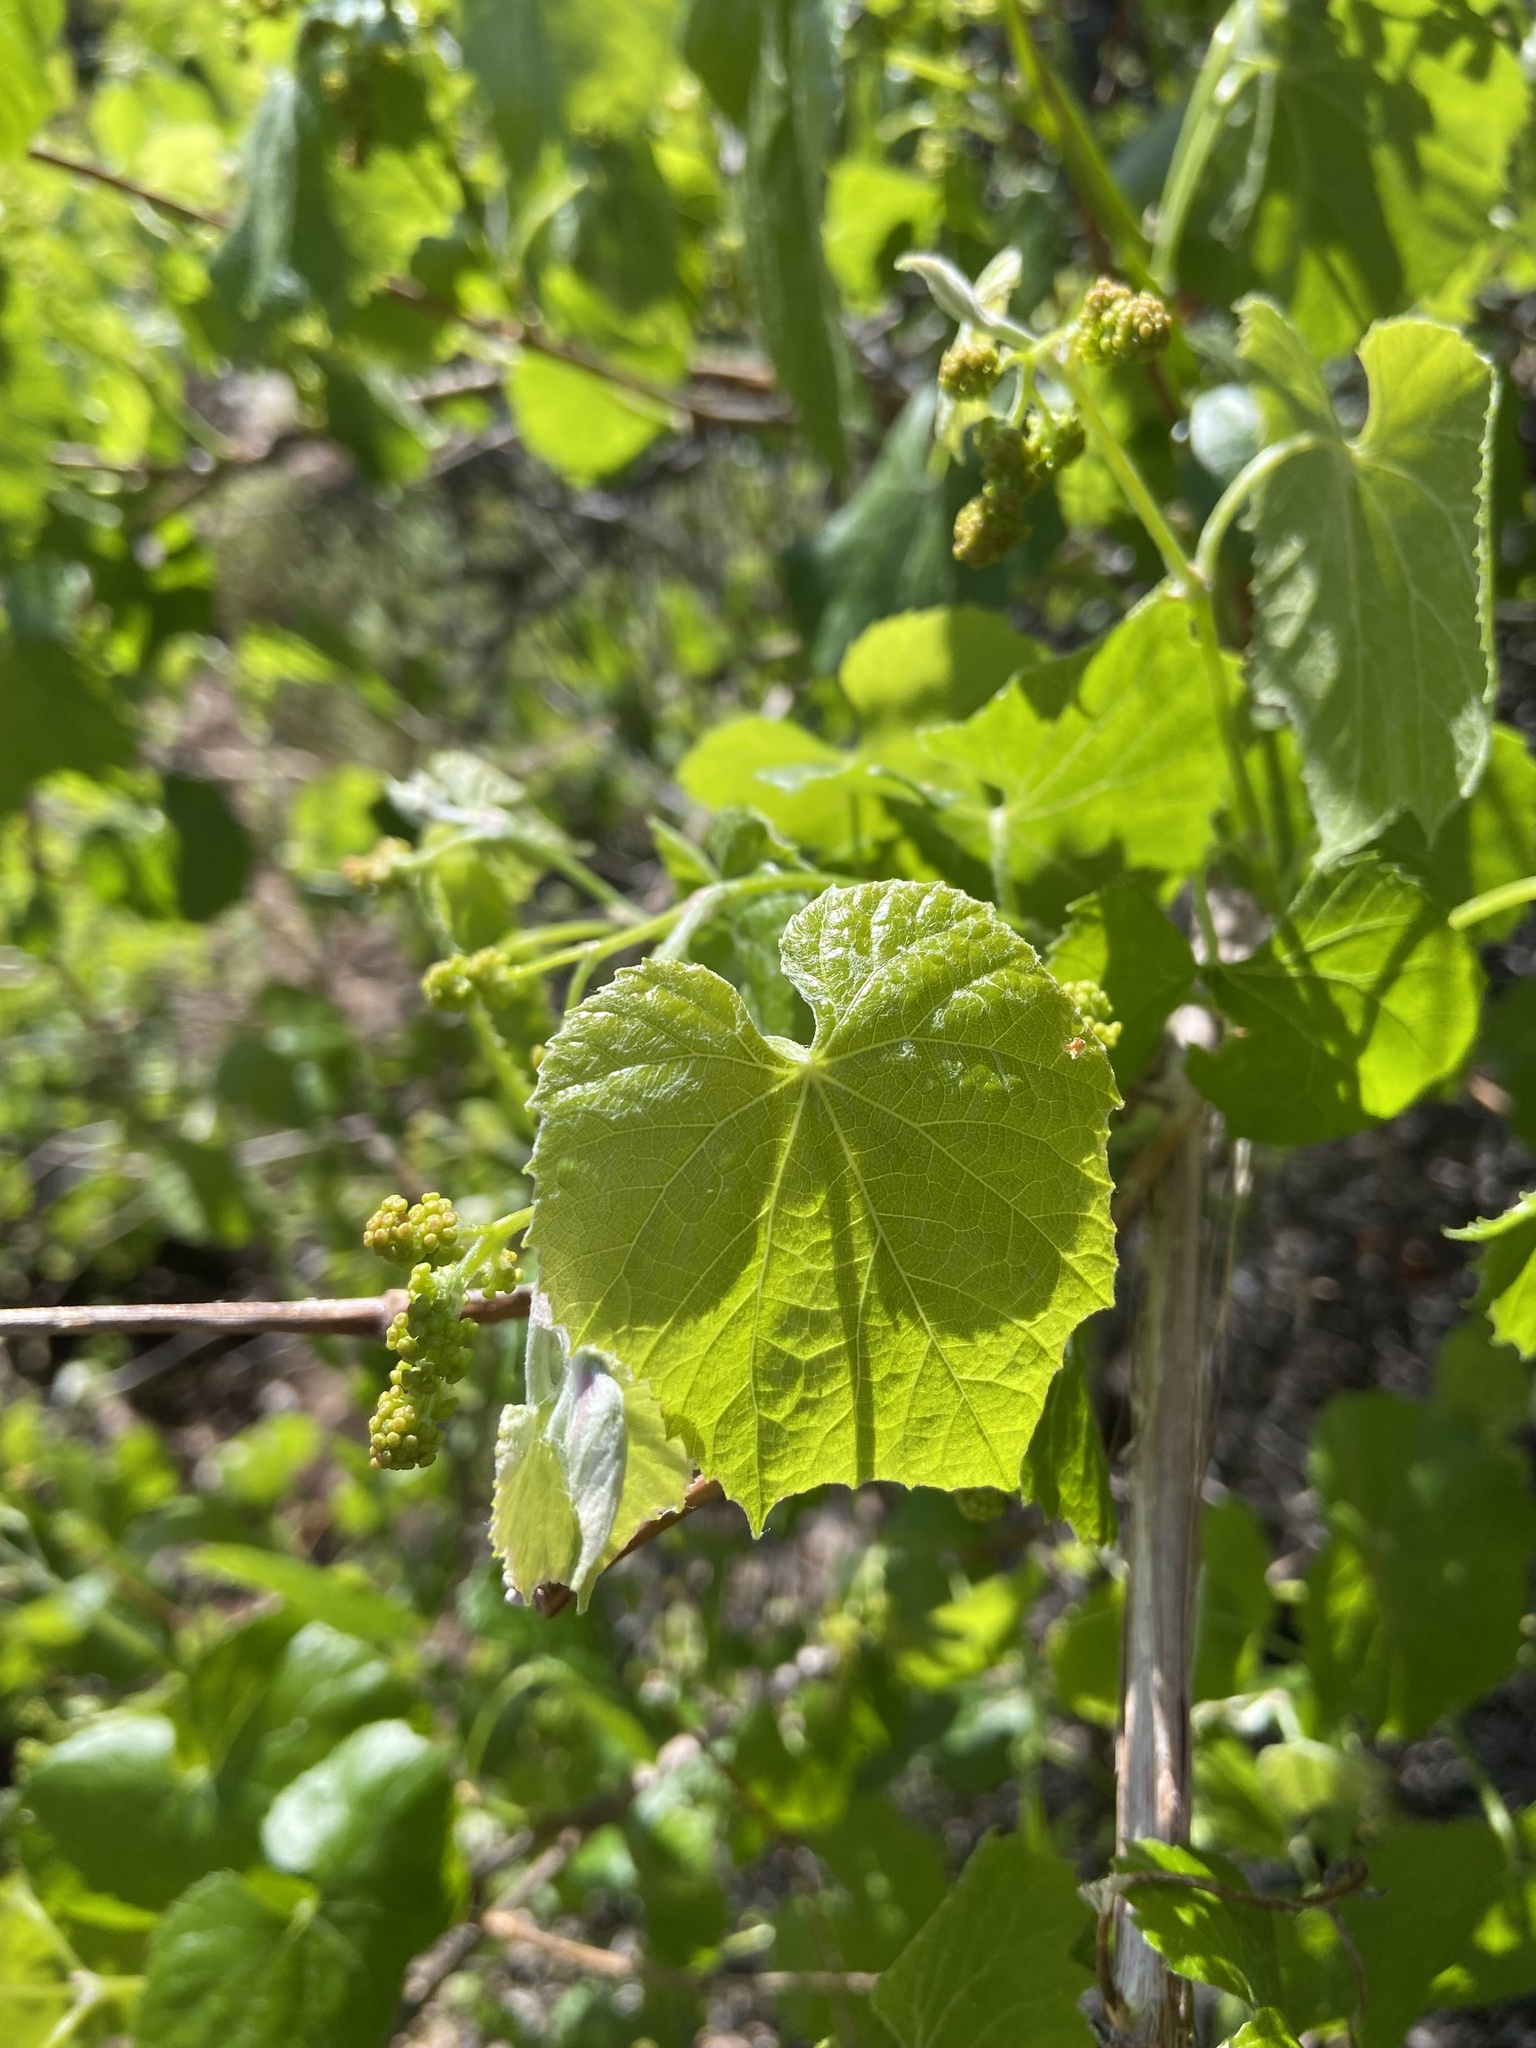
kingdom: Plantae
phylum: Tracheophyta
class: Magnoliopsida
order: Vitales
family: Vitaceae
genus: Vitis
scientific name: Vitis arizonica
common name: Canyon grape
